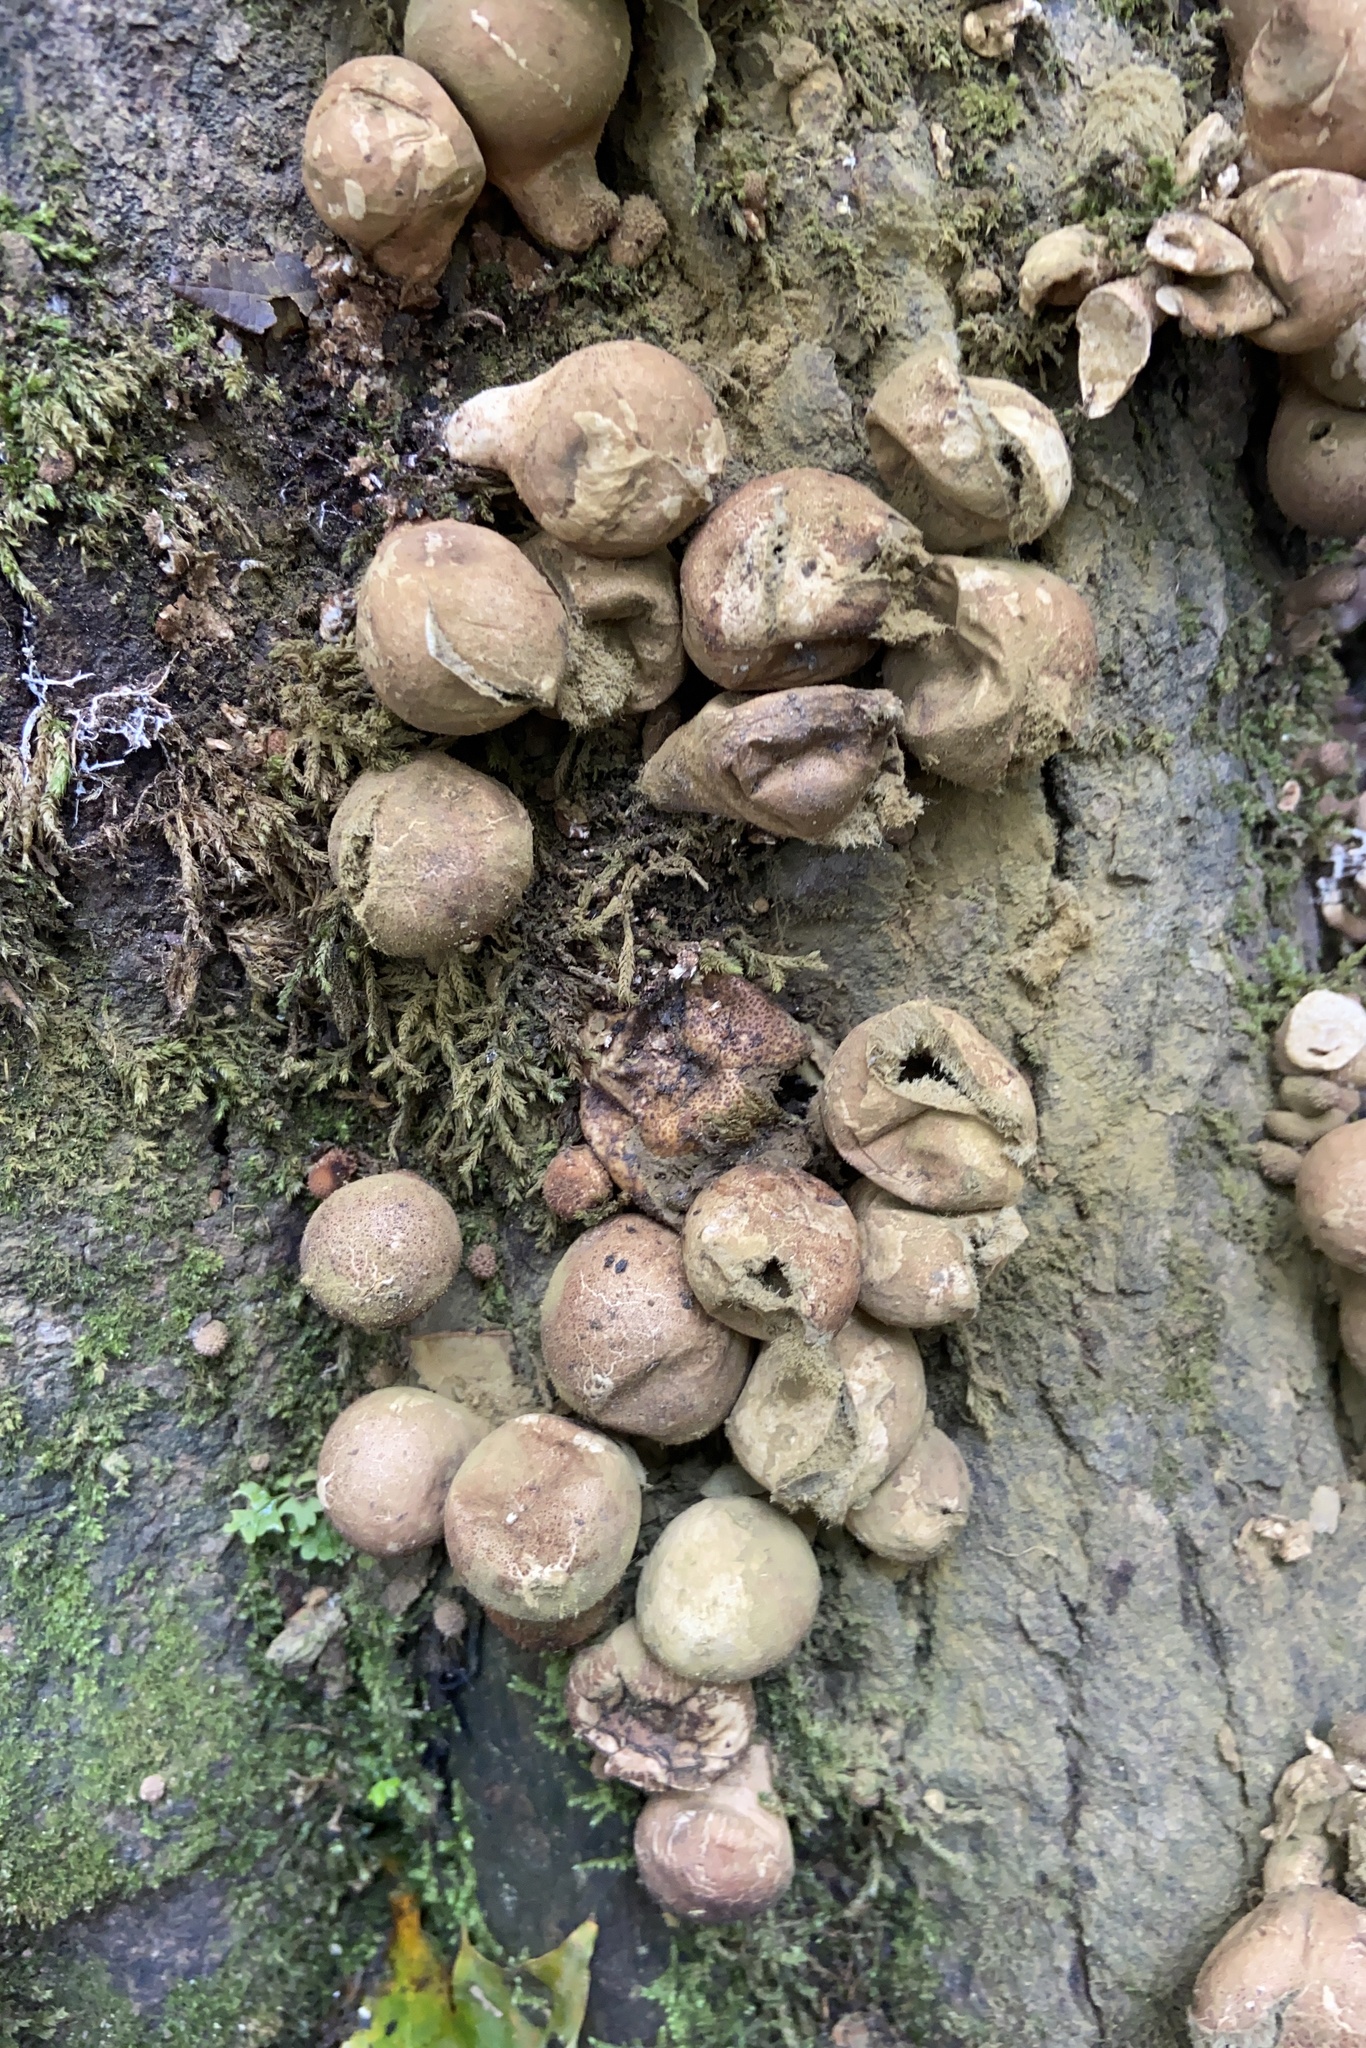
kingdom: Fungi
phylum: Basidiomycota
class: Agaricomycetes
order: Agaricales
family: Lycoperdaceae
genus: Apioperdon
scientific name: Apioperdon pyriforme
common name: Pear-shaped puffball
